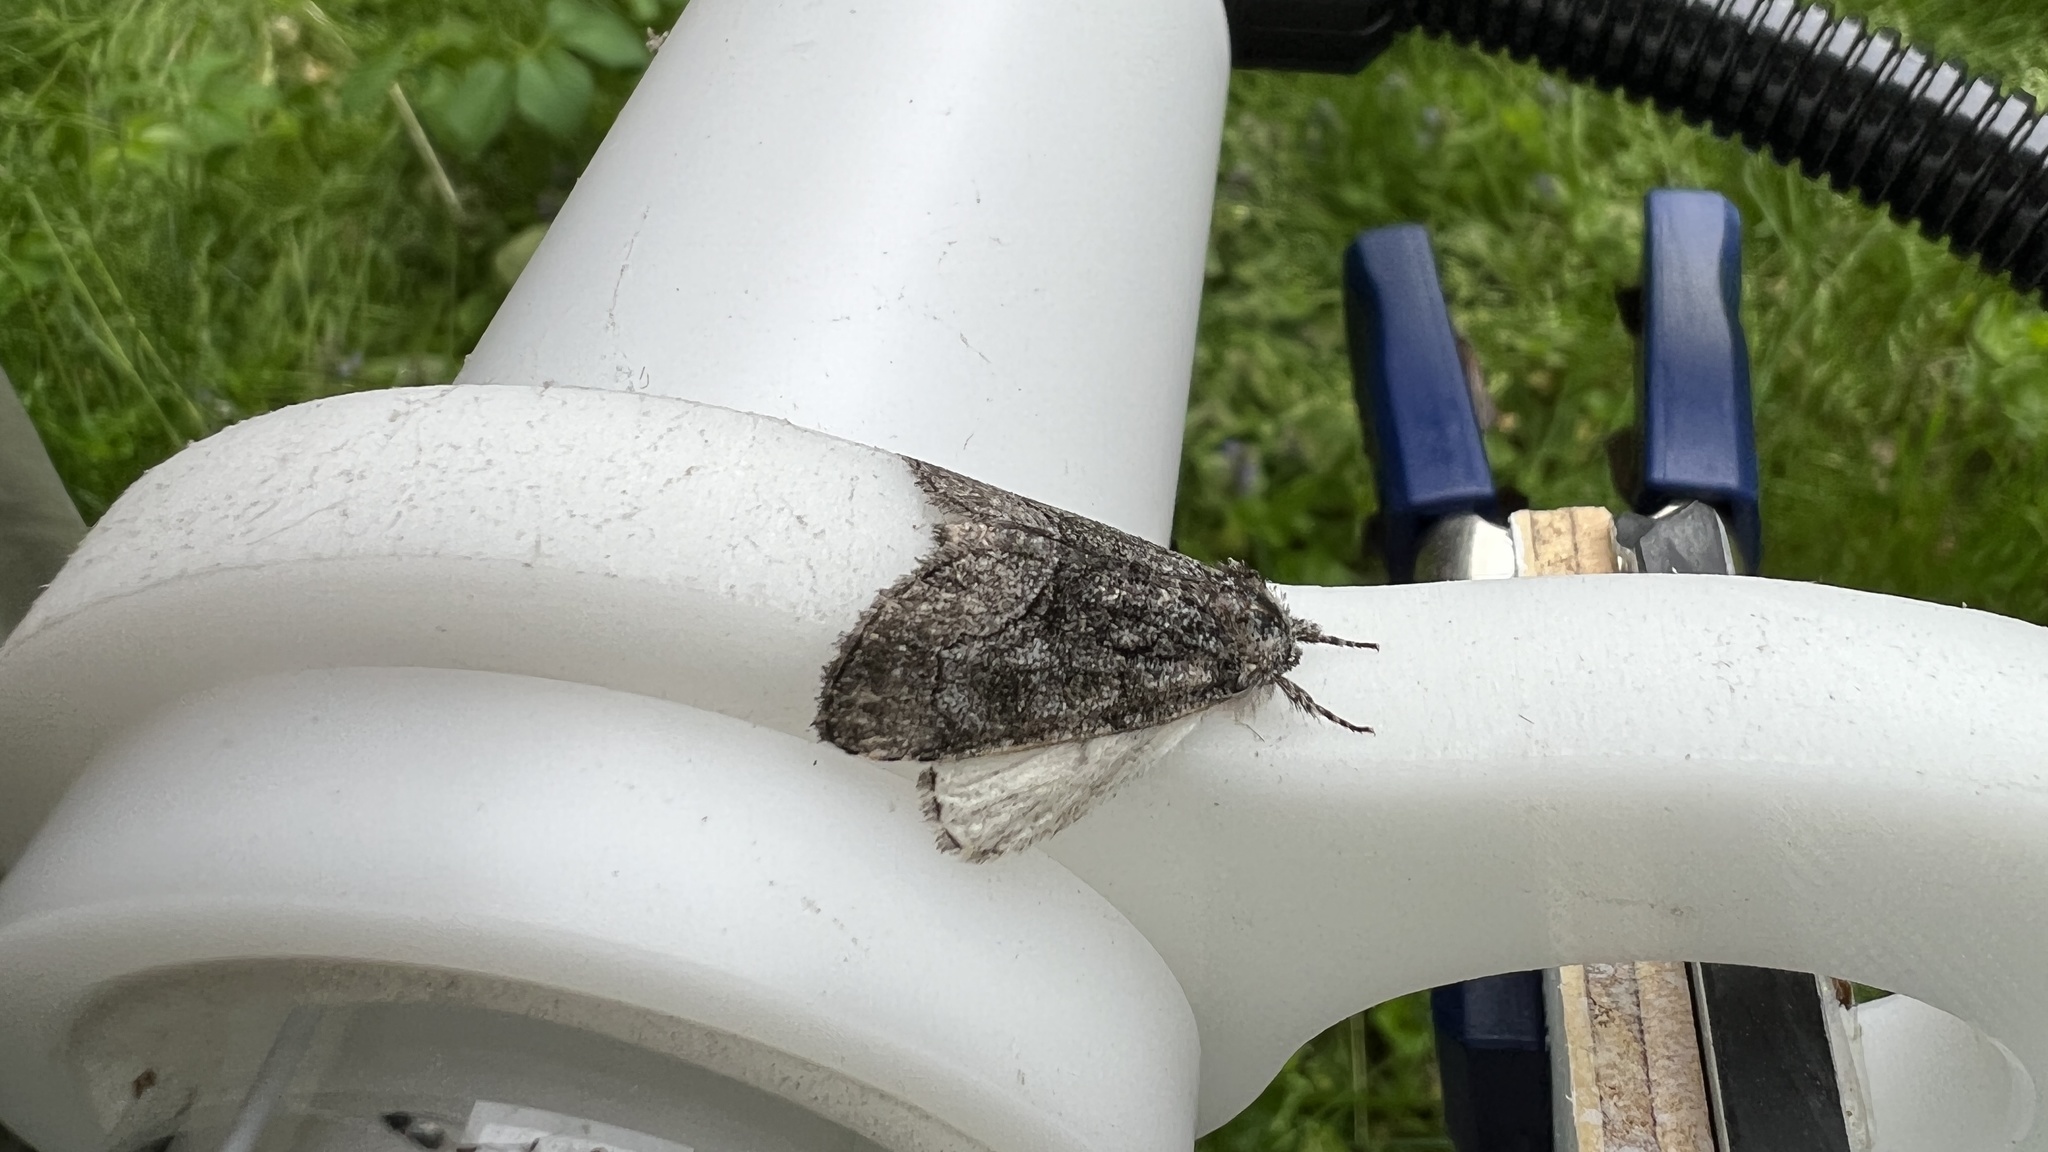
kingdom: Animalia
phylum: Arthropoda
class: Insecta
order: Lepidoptera
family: Noctuidae
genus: Raphia
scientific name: Raphia frater
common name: Brother
